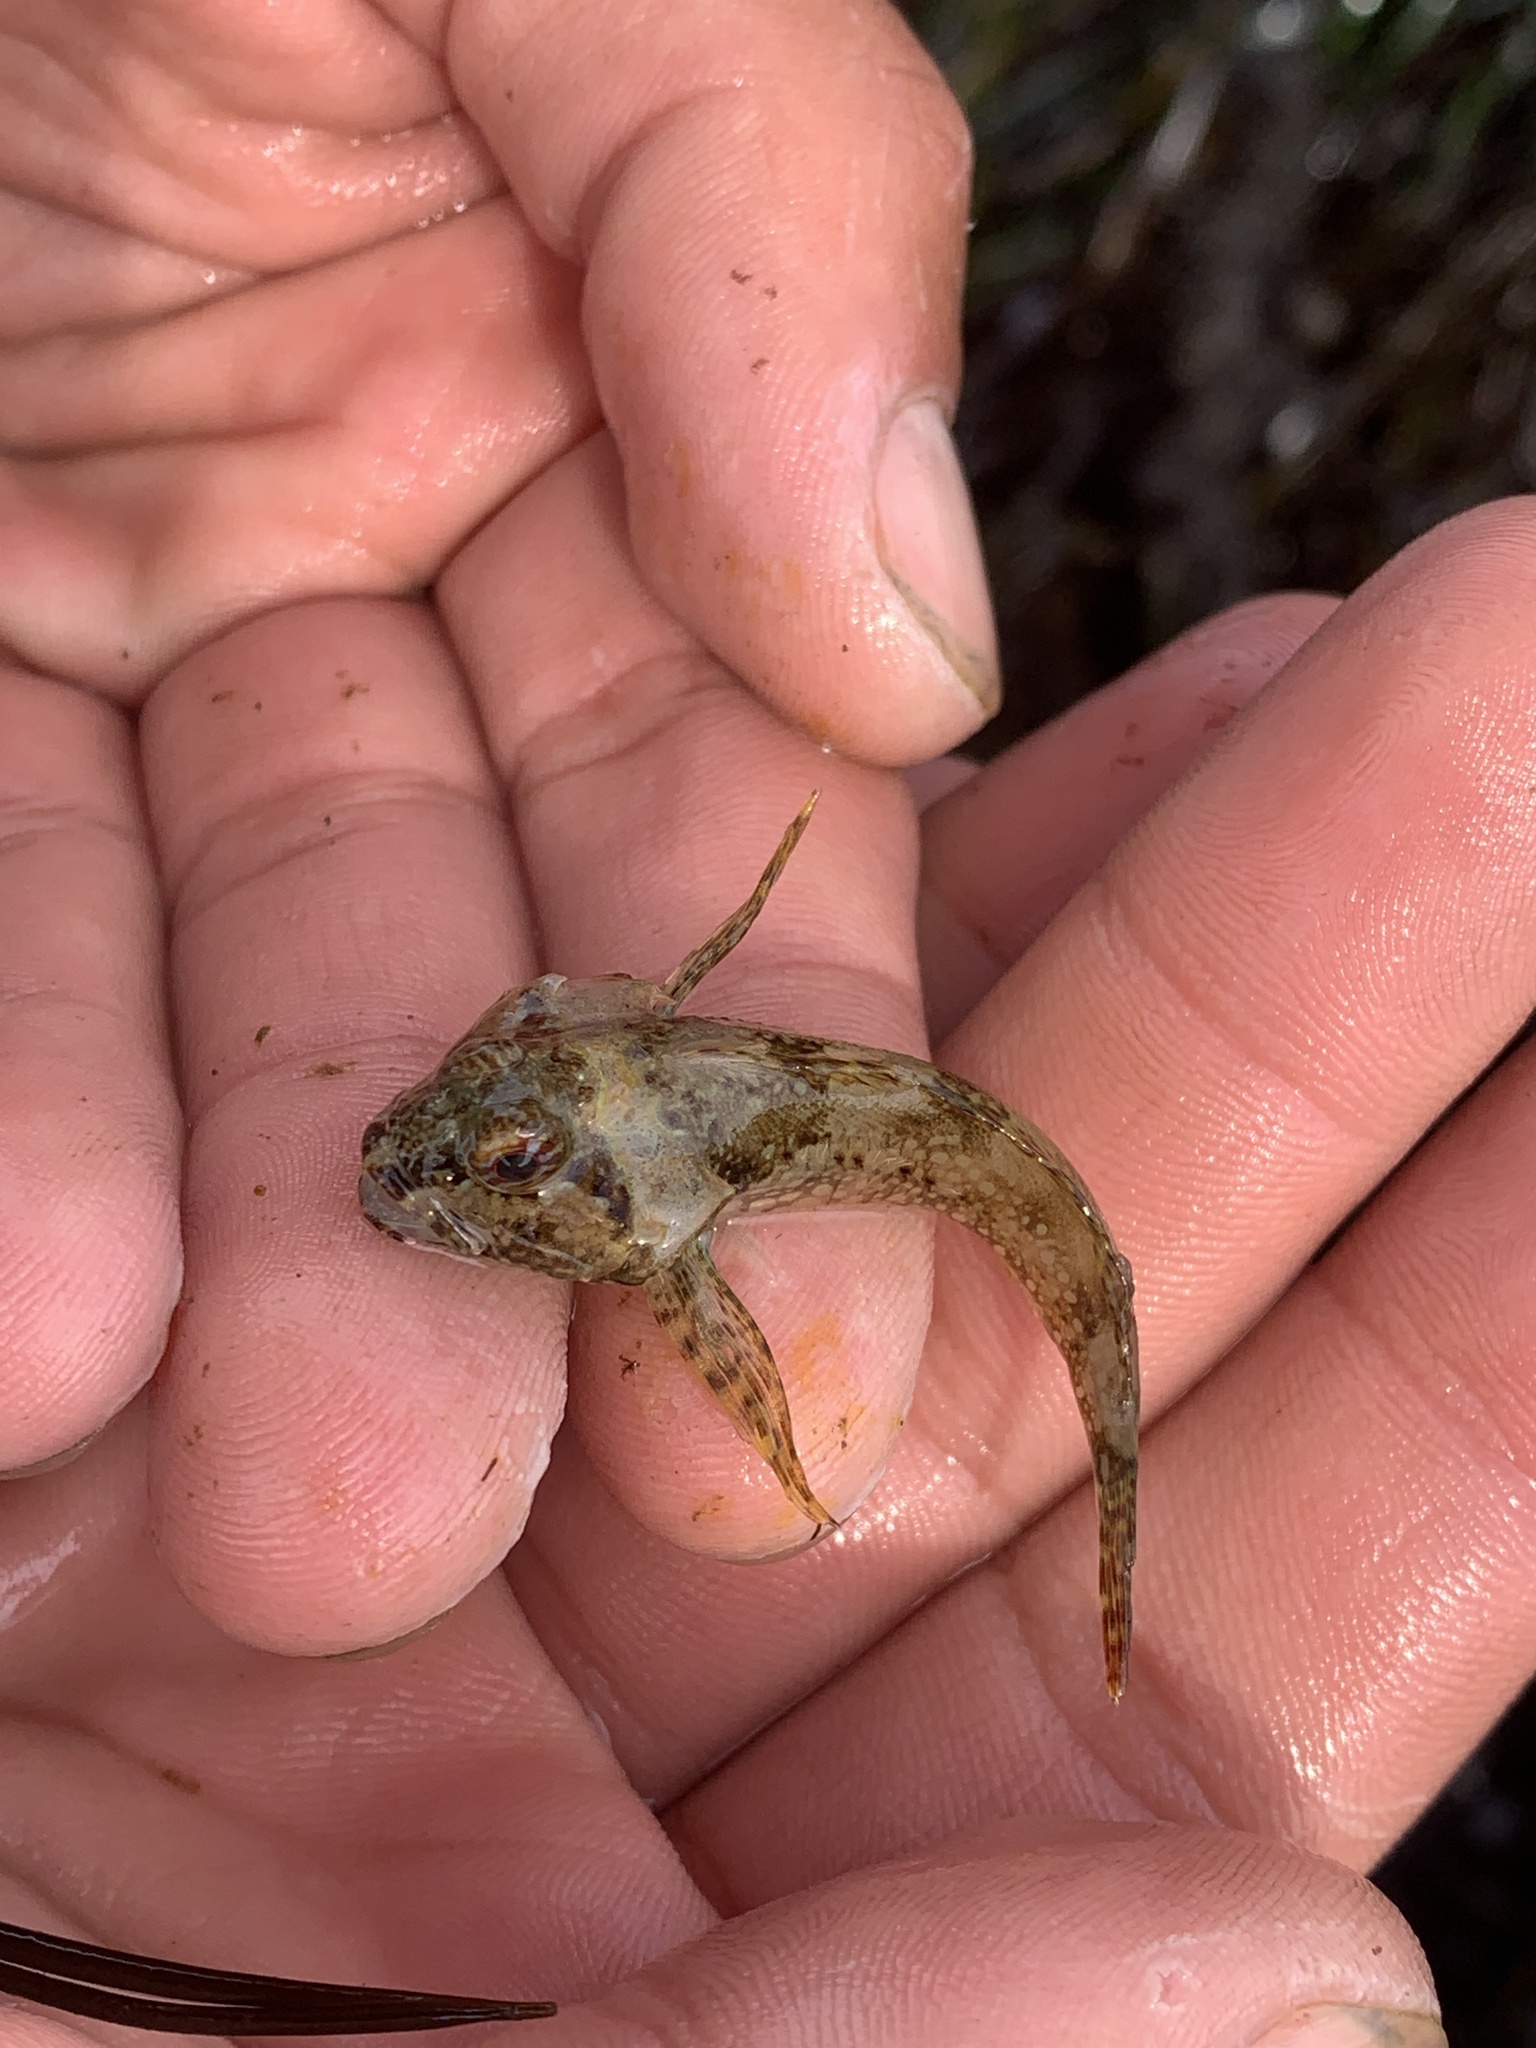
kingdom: Animalia
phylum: Chordata
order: Scorpaeniformes
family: Cottidae
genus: Artedius
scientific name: Artedius harringtoni
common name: Scalyhead sculpin
